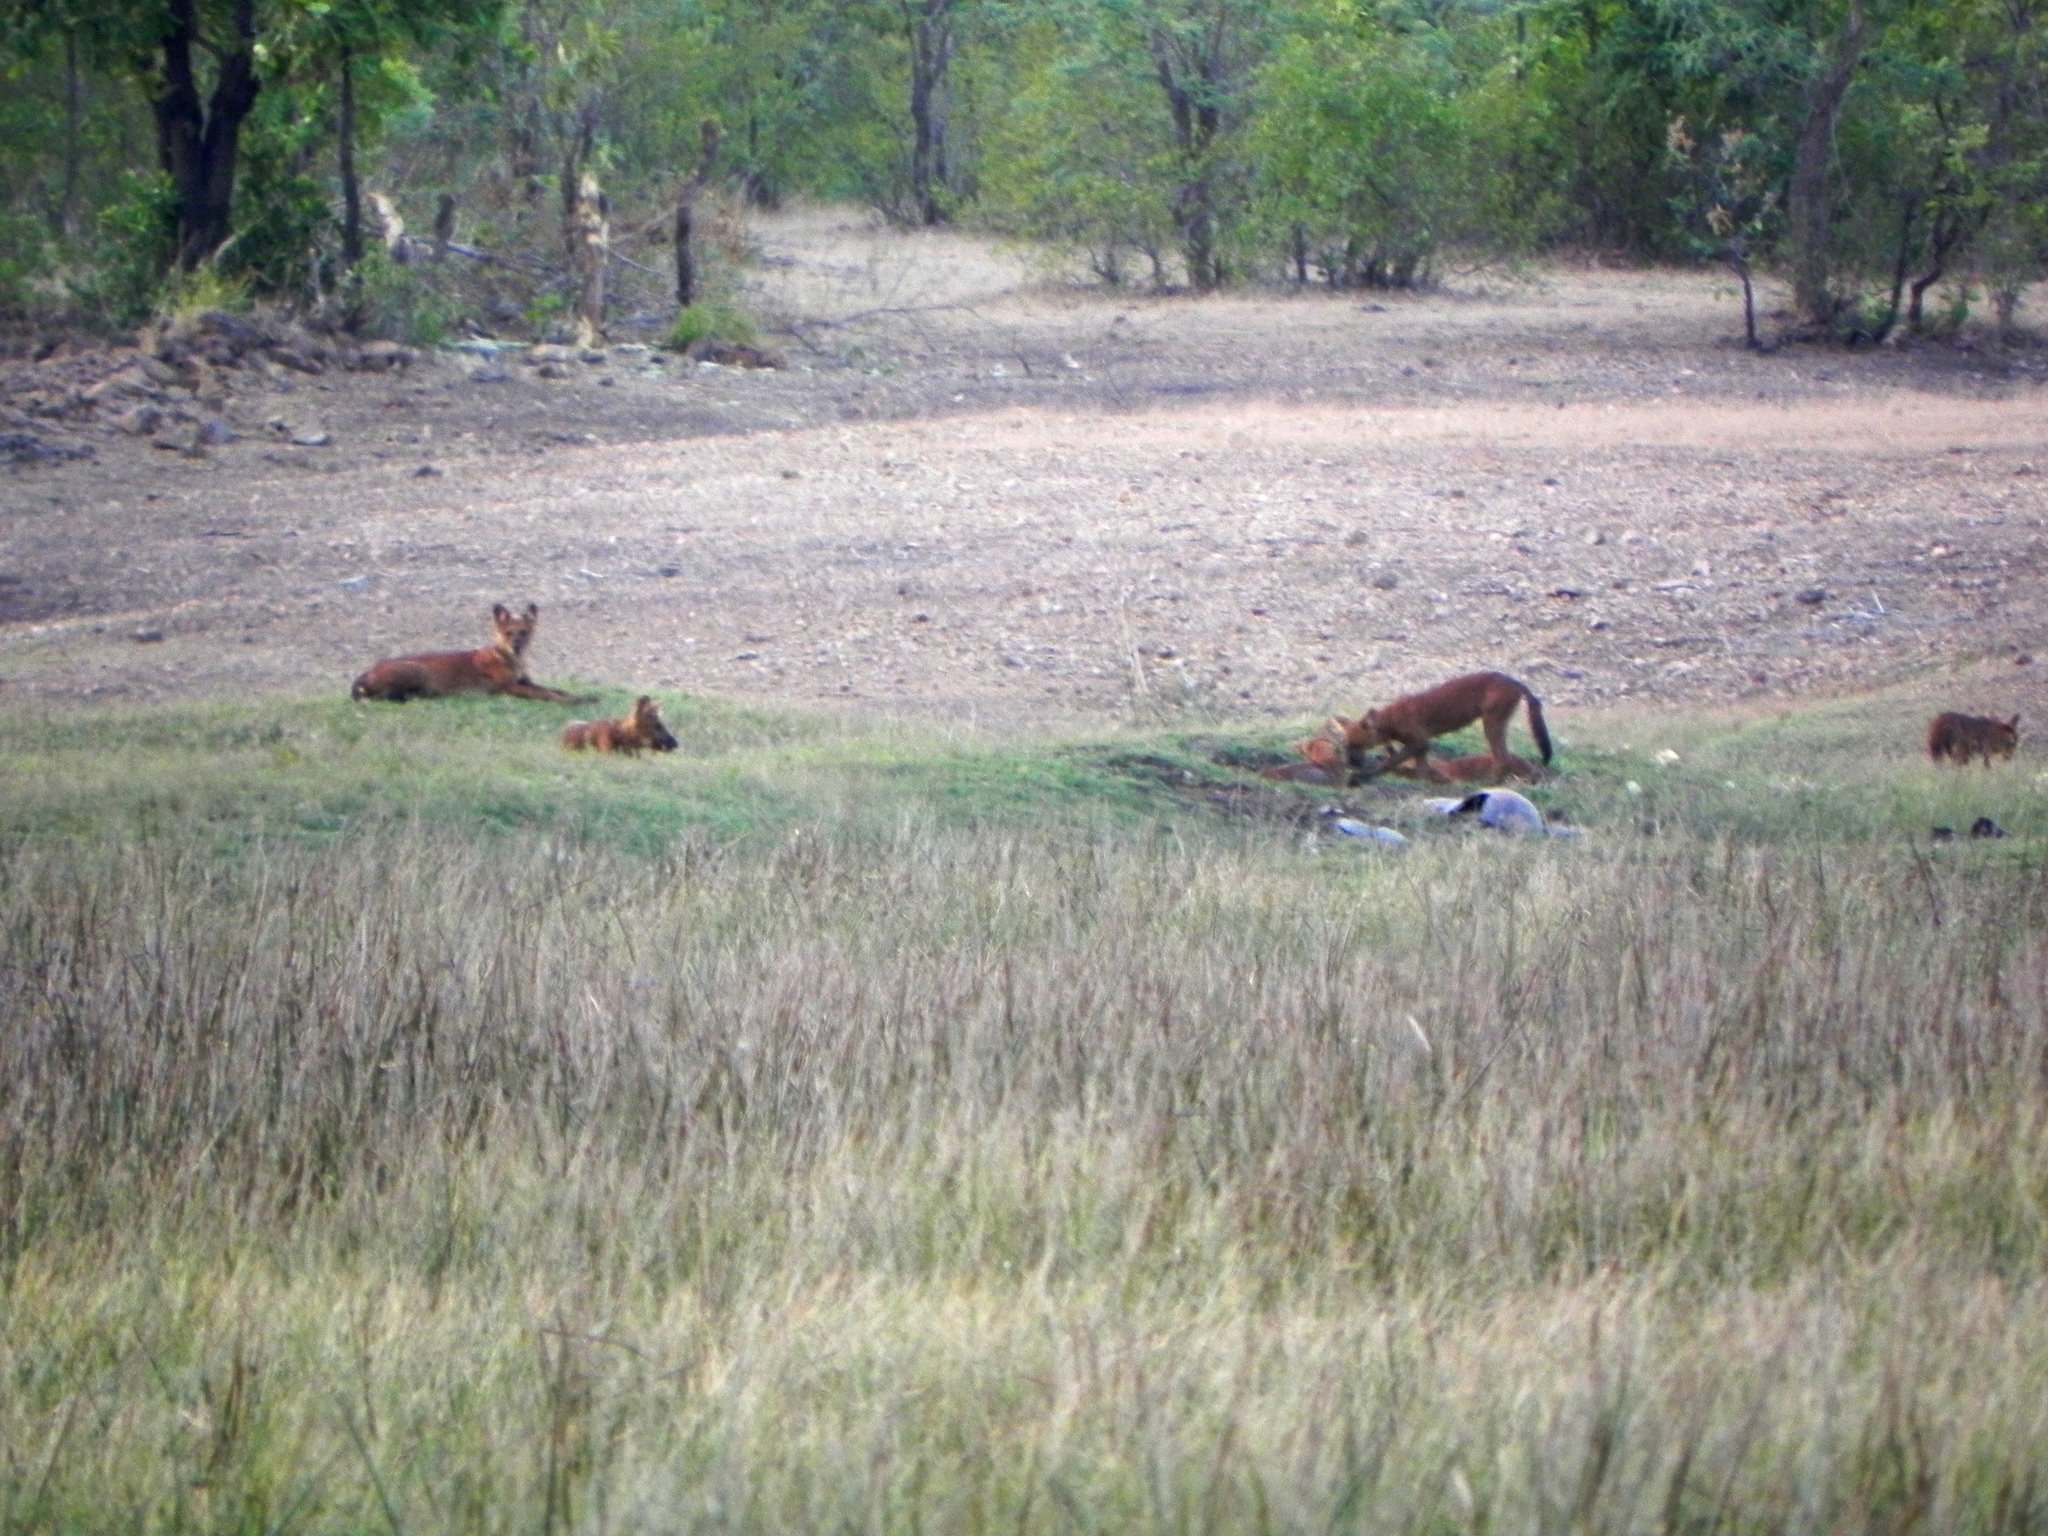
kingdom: Animalia
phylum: Chordata
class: Mammalia
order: Carnivora
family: Canidae
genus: Cuon
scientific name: Cuon alpinus
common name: Dhole
